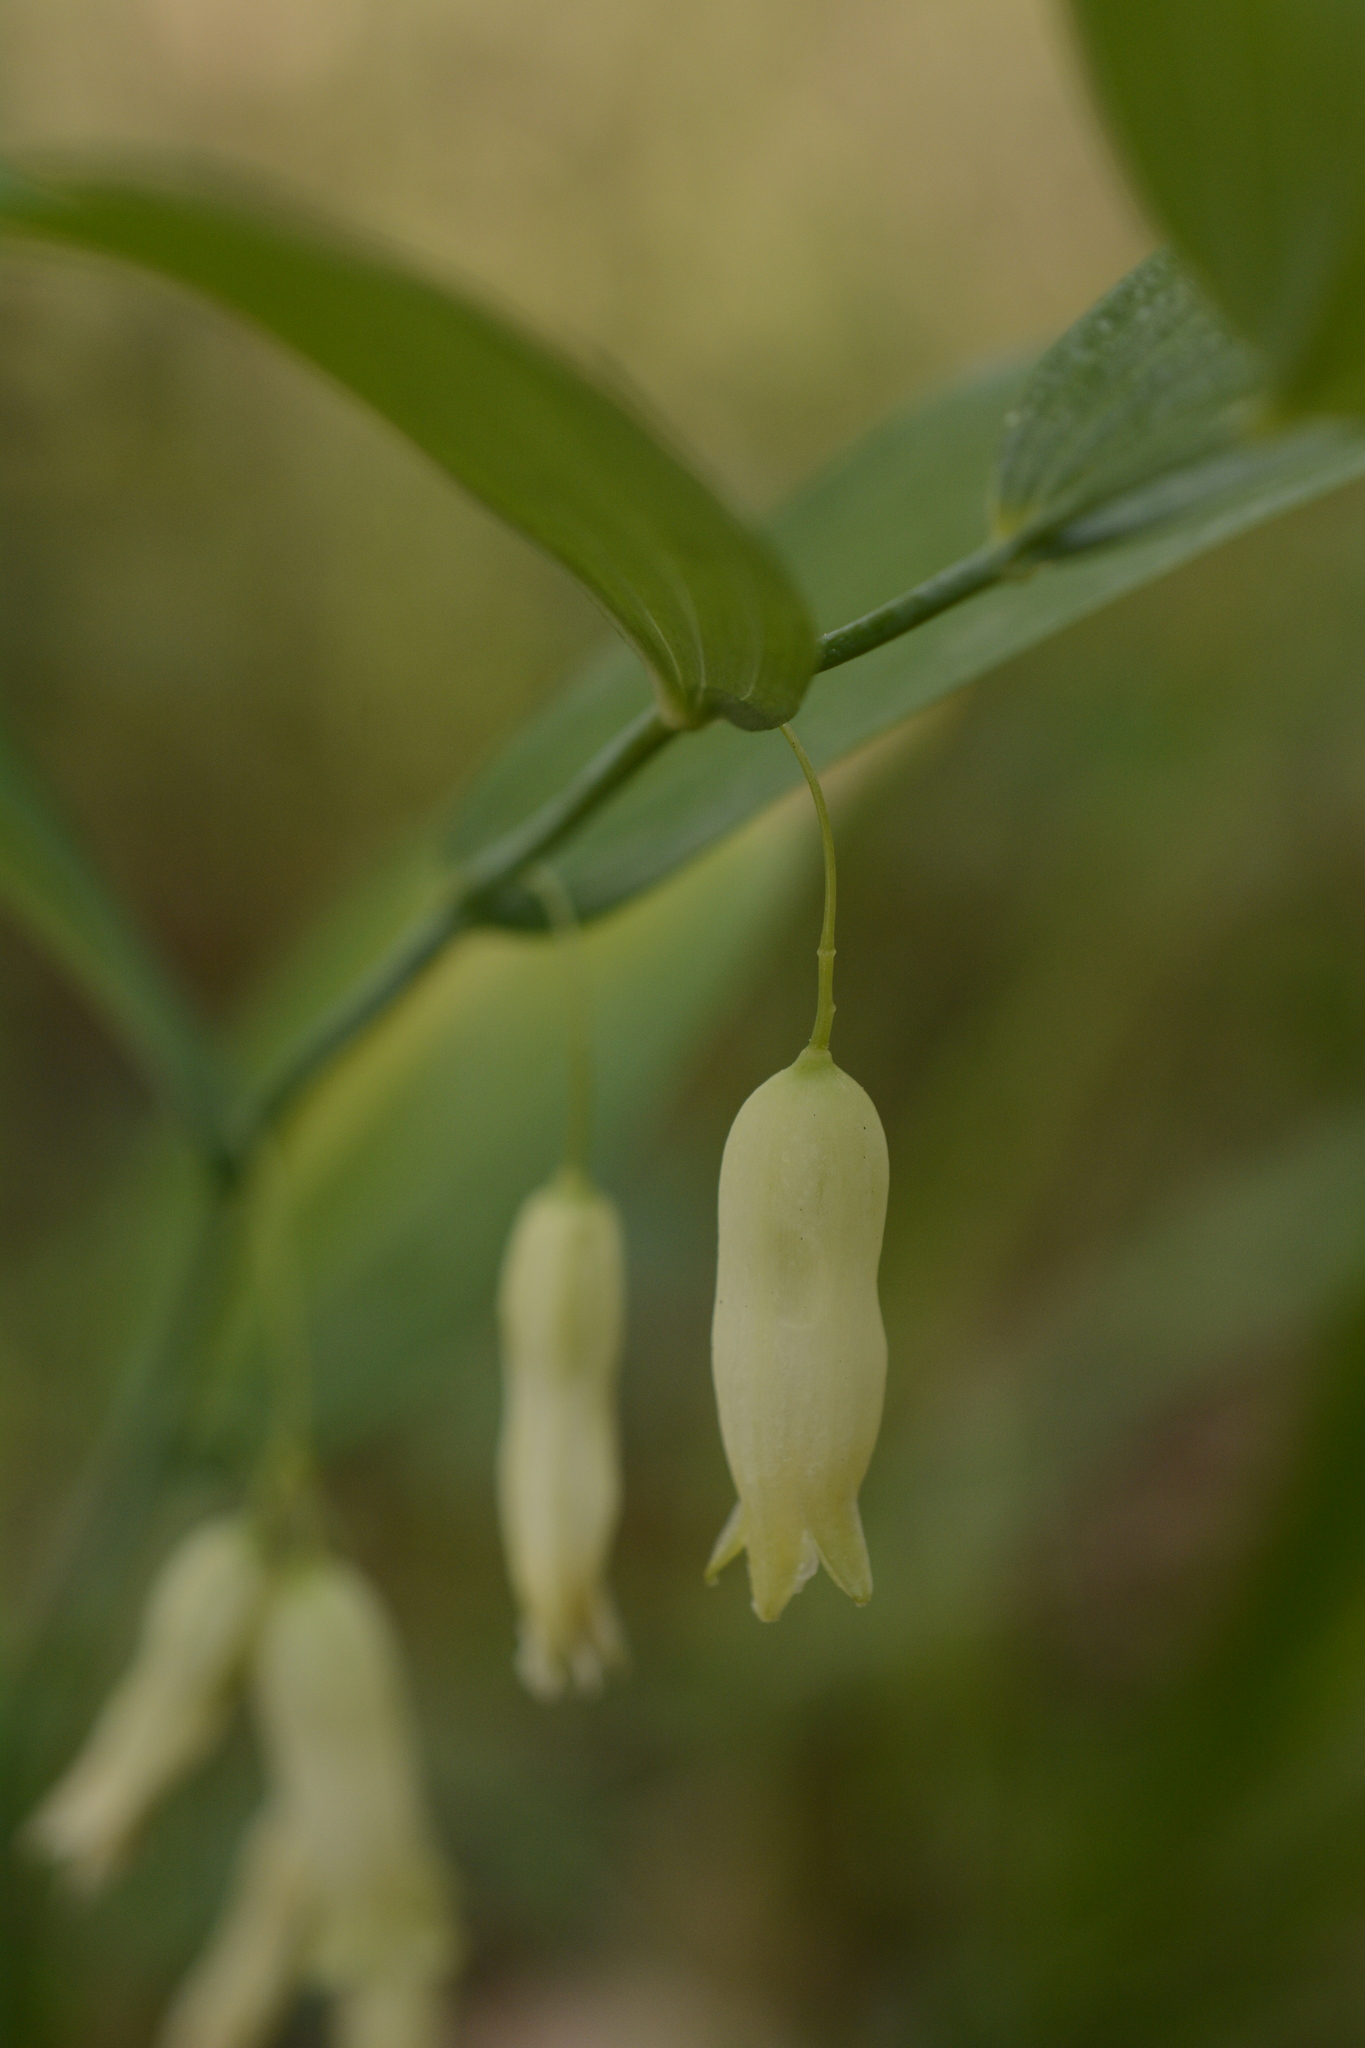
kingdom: Plantae
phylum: Tracheophyta
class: Liliopsida
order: Asparagales
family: Asparagaceae
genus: Polygonatum
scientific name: Polygonatum biflorum
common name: American solomon's-seal
